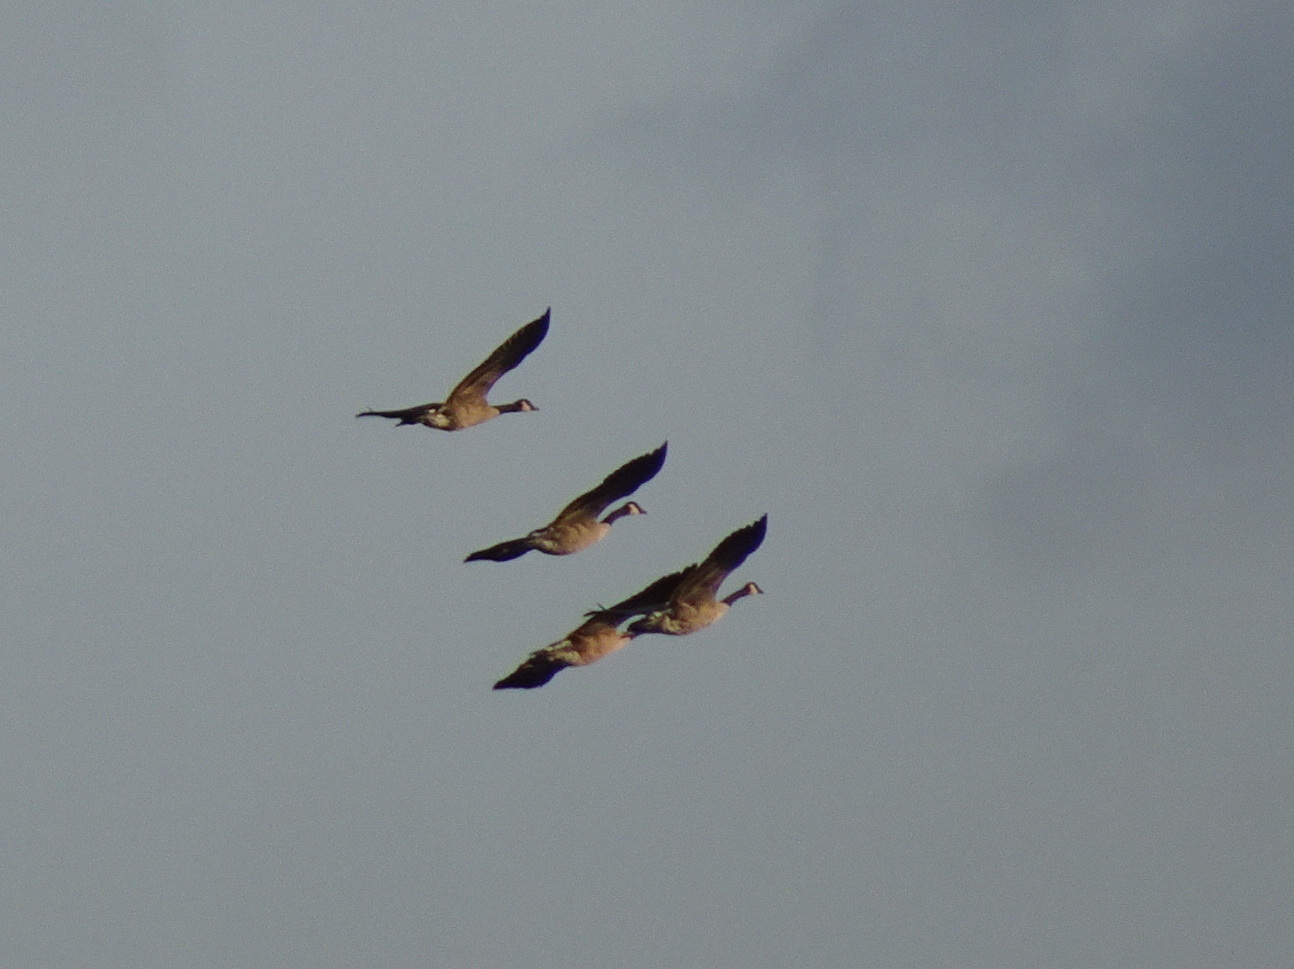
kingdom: Animalia
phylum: Chordata
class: Aves
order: Anseriformes
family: Anatidae
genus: Branta
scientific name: Branta canadensis
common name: Canada goose
